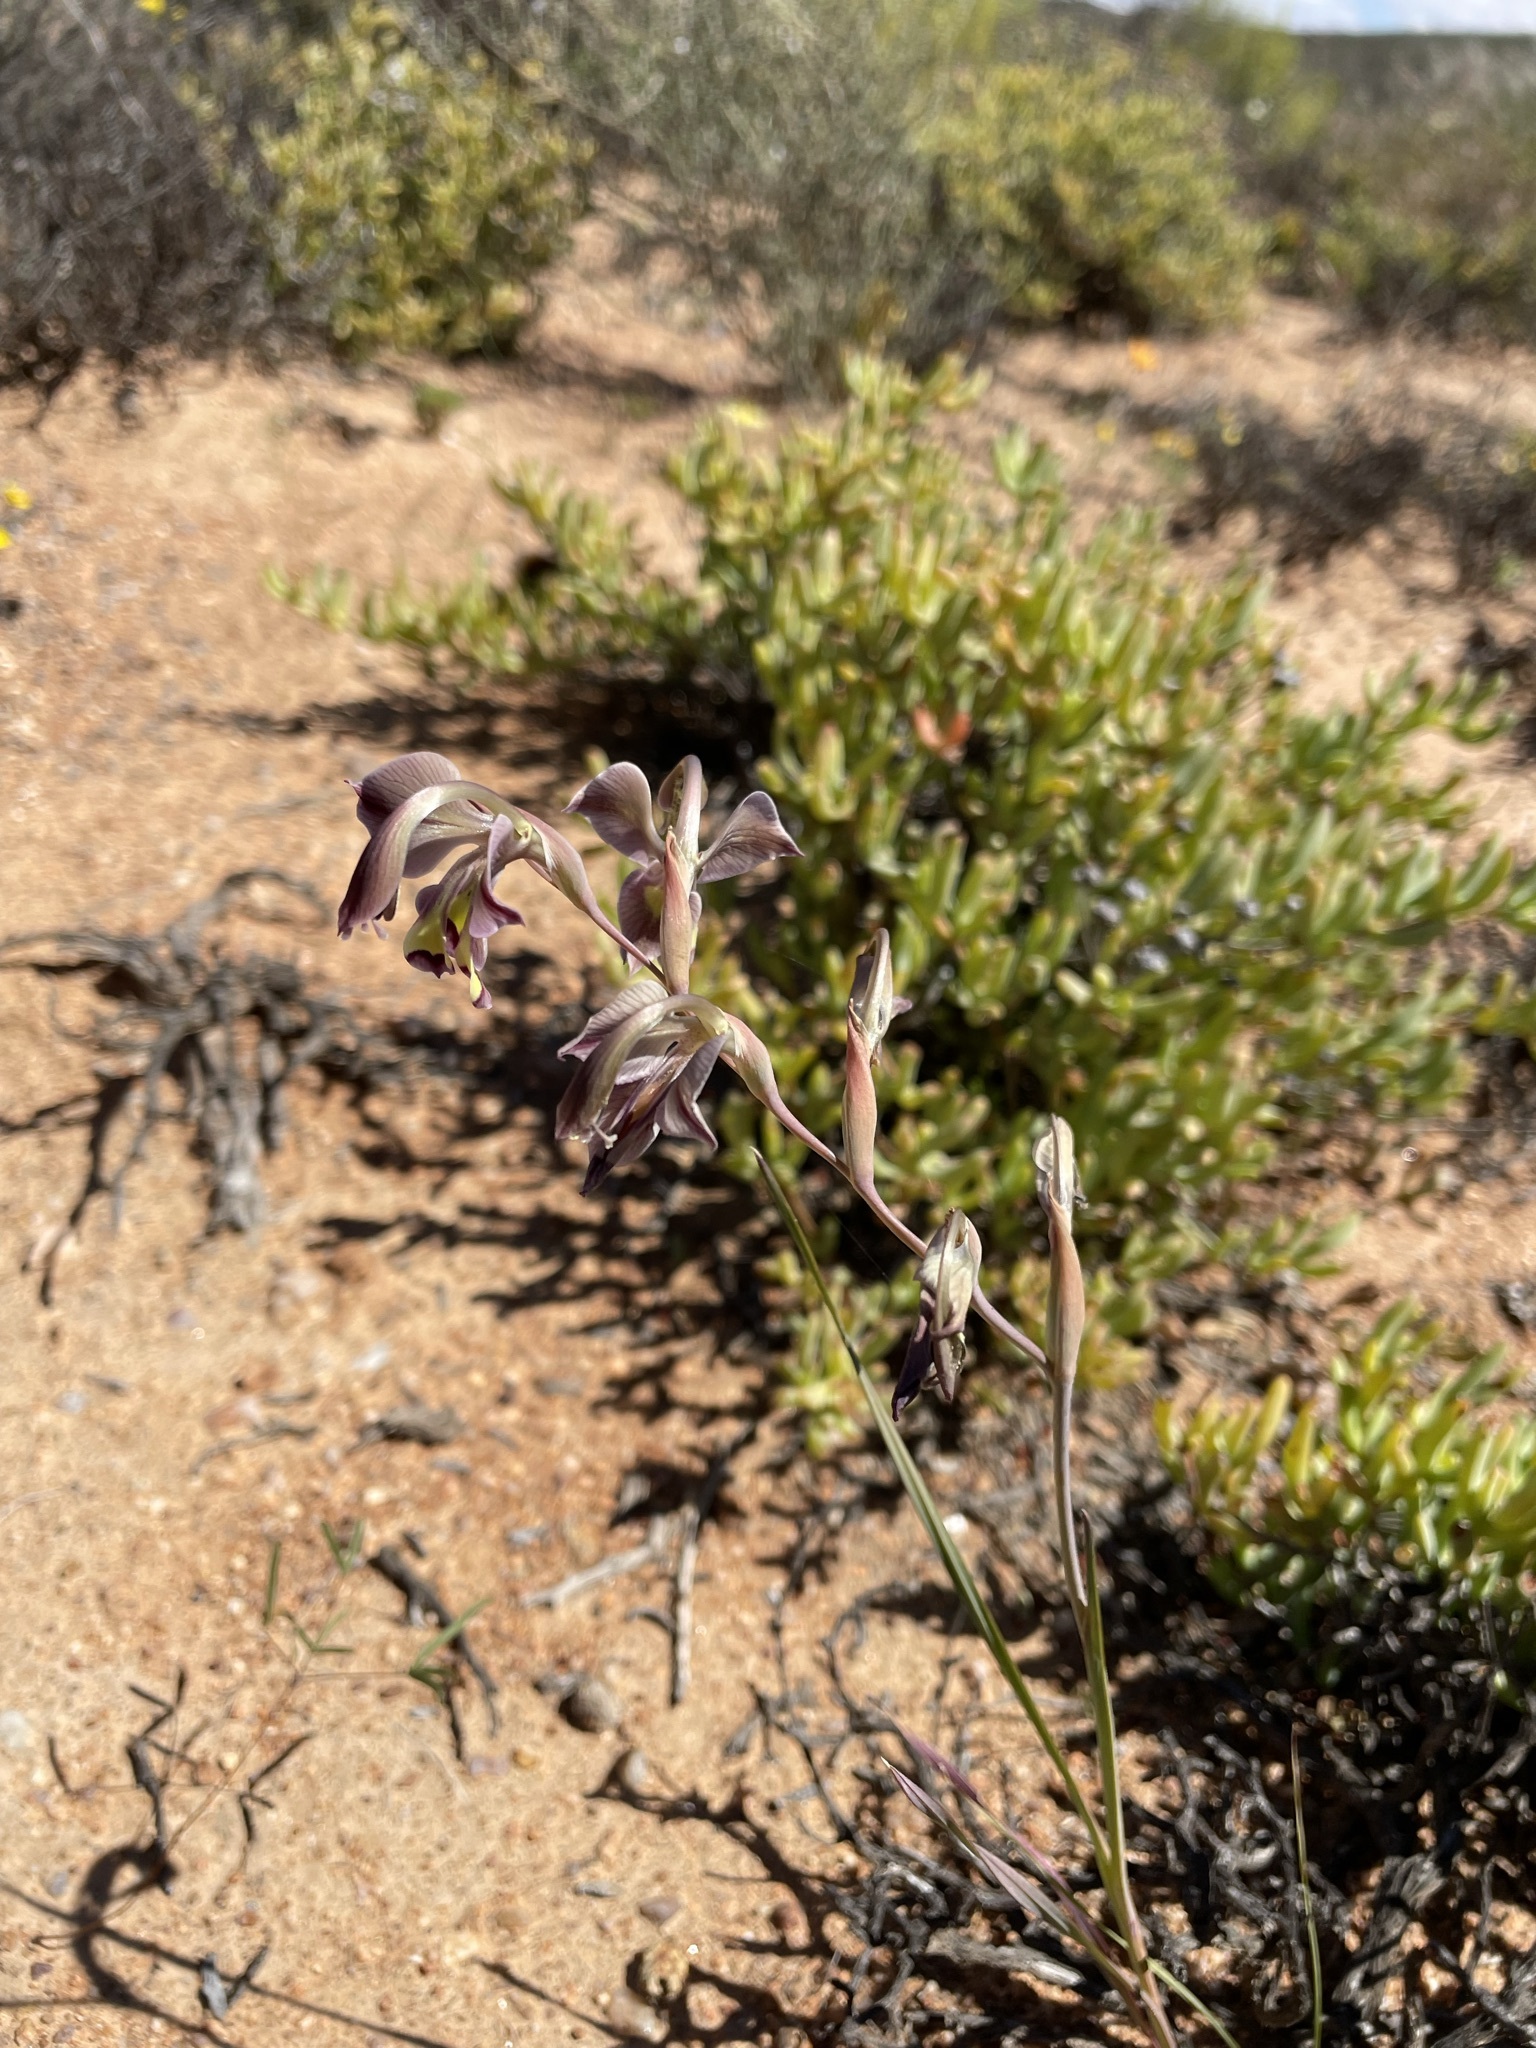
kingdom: Plantae
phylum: Tracheophyta
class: Liliopsida
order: Asparagales
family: Iridaceae
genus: Gladiolus
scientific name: Gladiolus orchidiflorus
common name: Gray kalkoentjie
